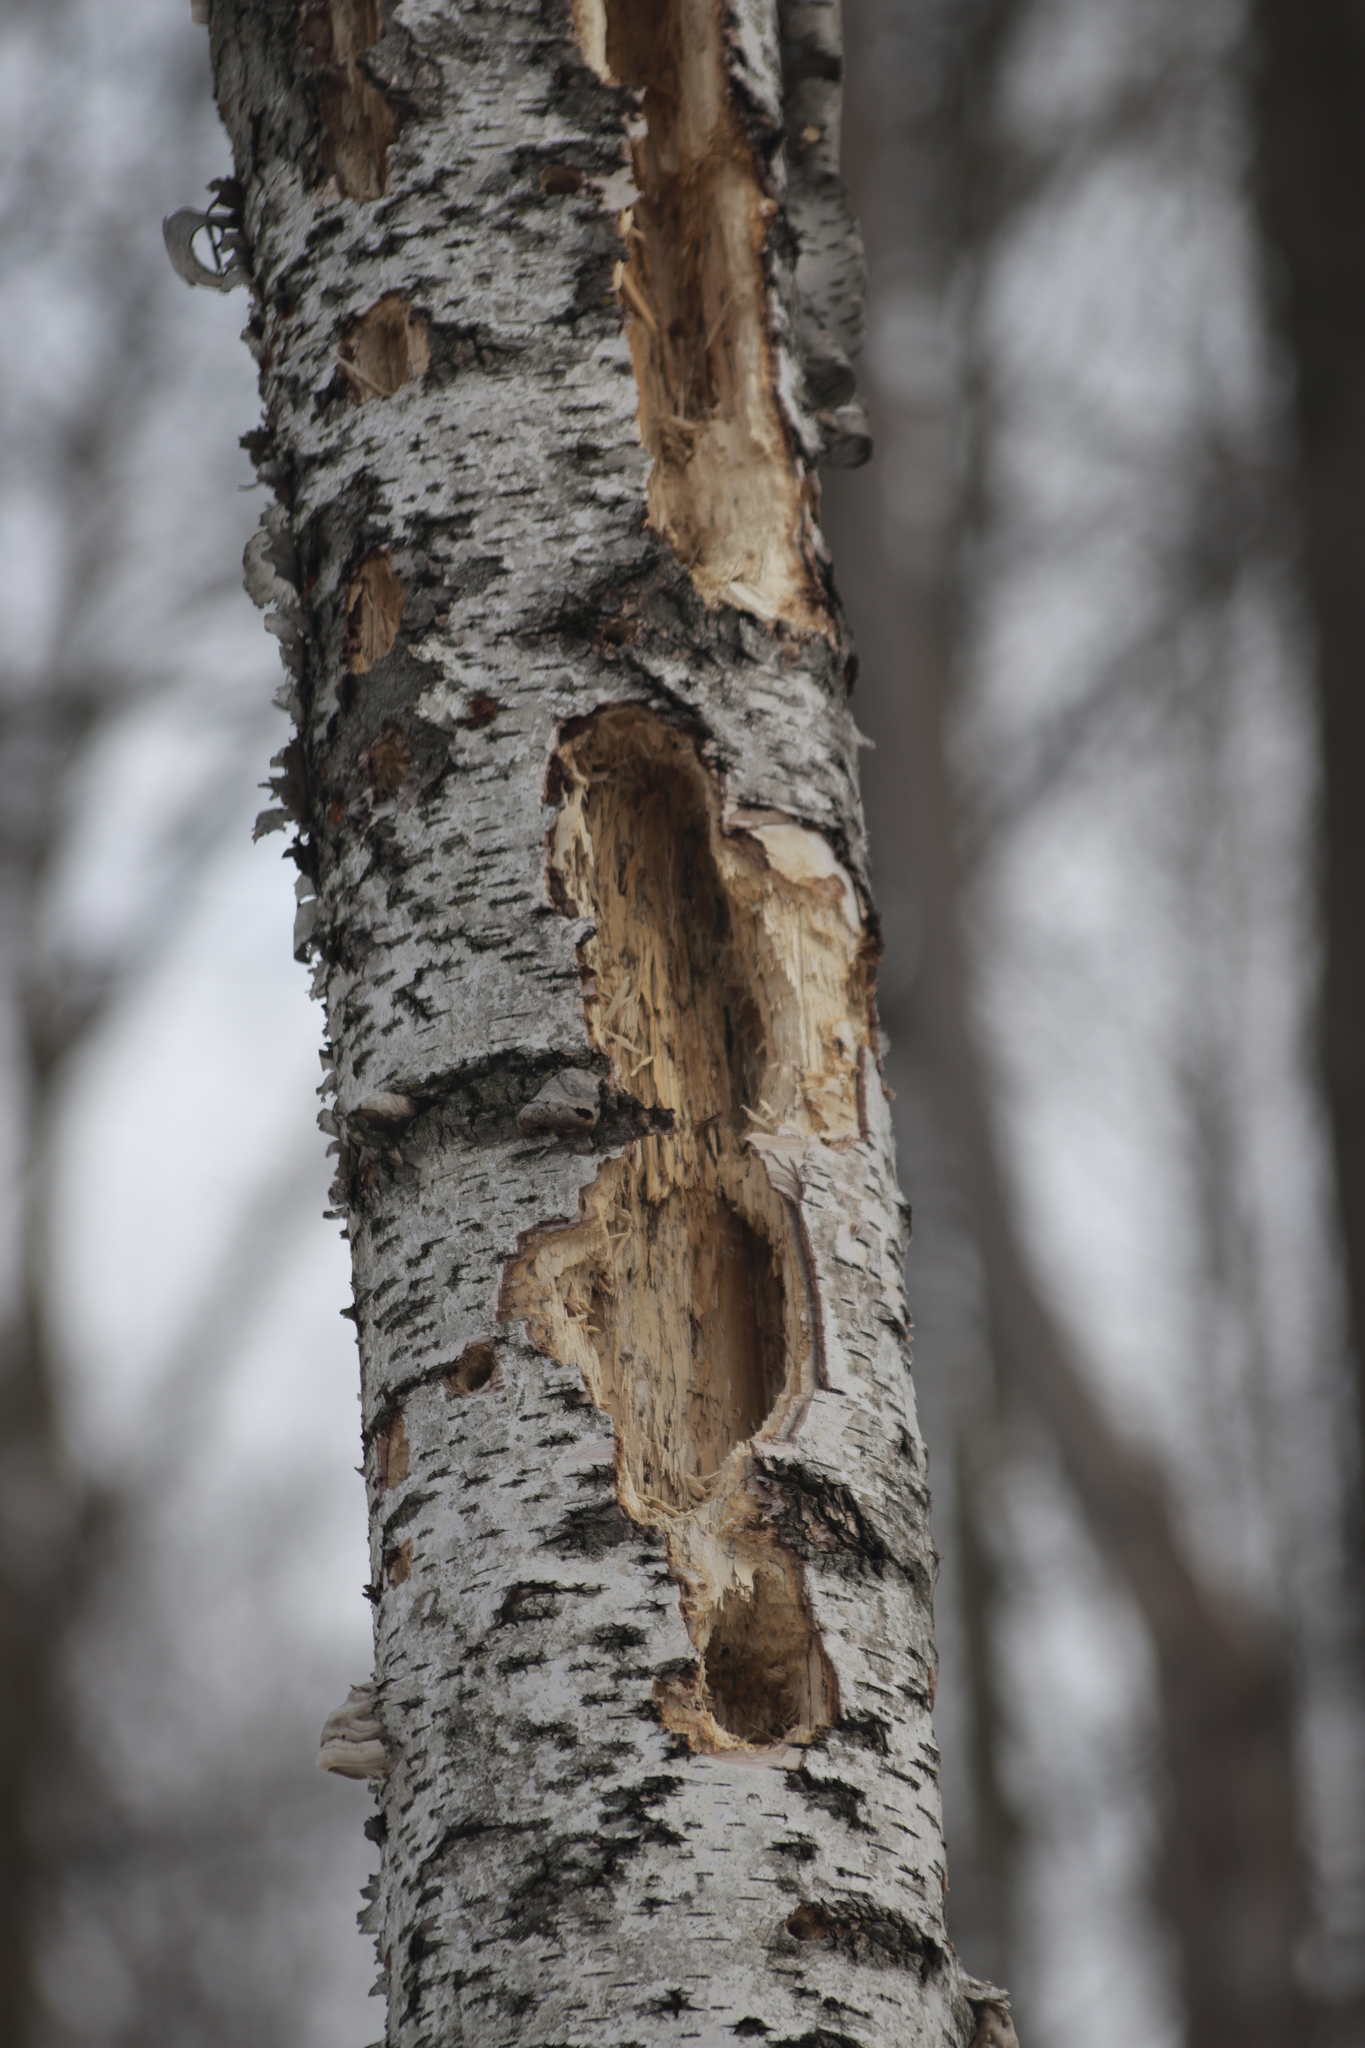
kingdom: Animalia
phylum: Chordata
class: Aves
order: Piciformes
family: Picidae
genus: Dryocopus
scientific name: Dryocopus pileatus
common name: Pileated woodpecker
